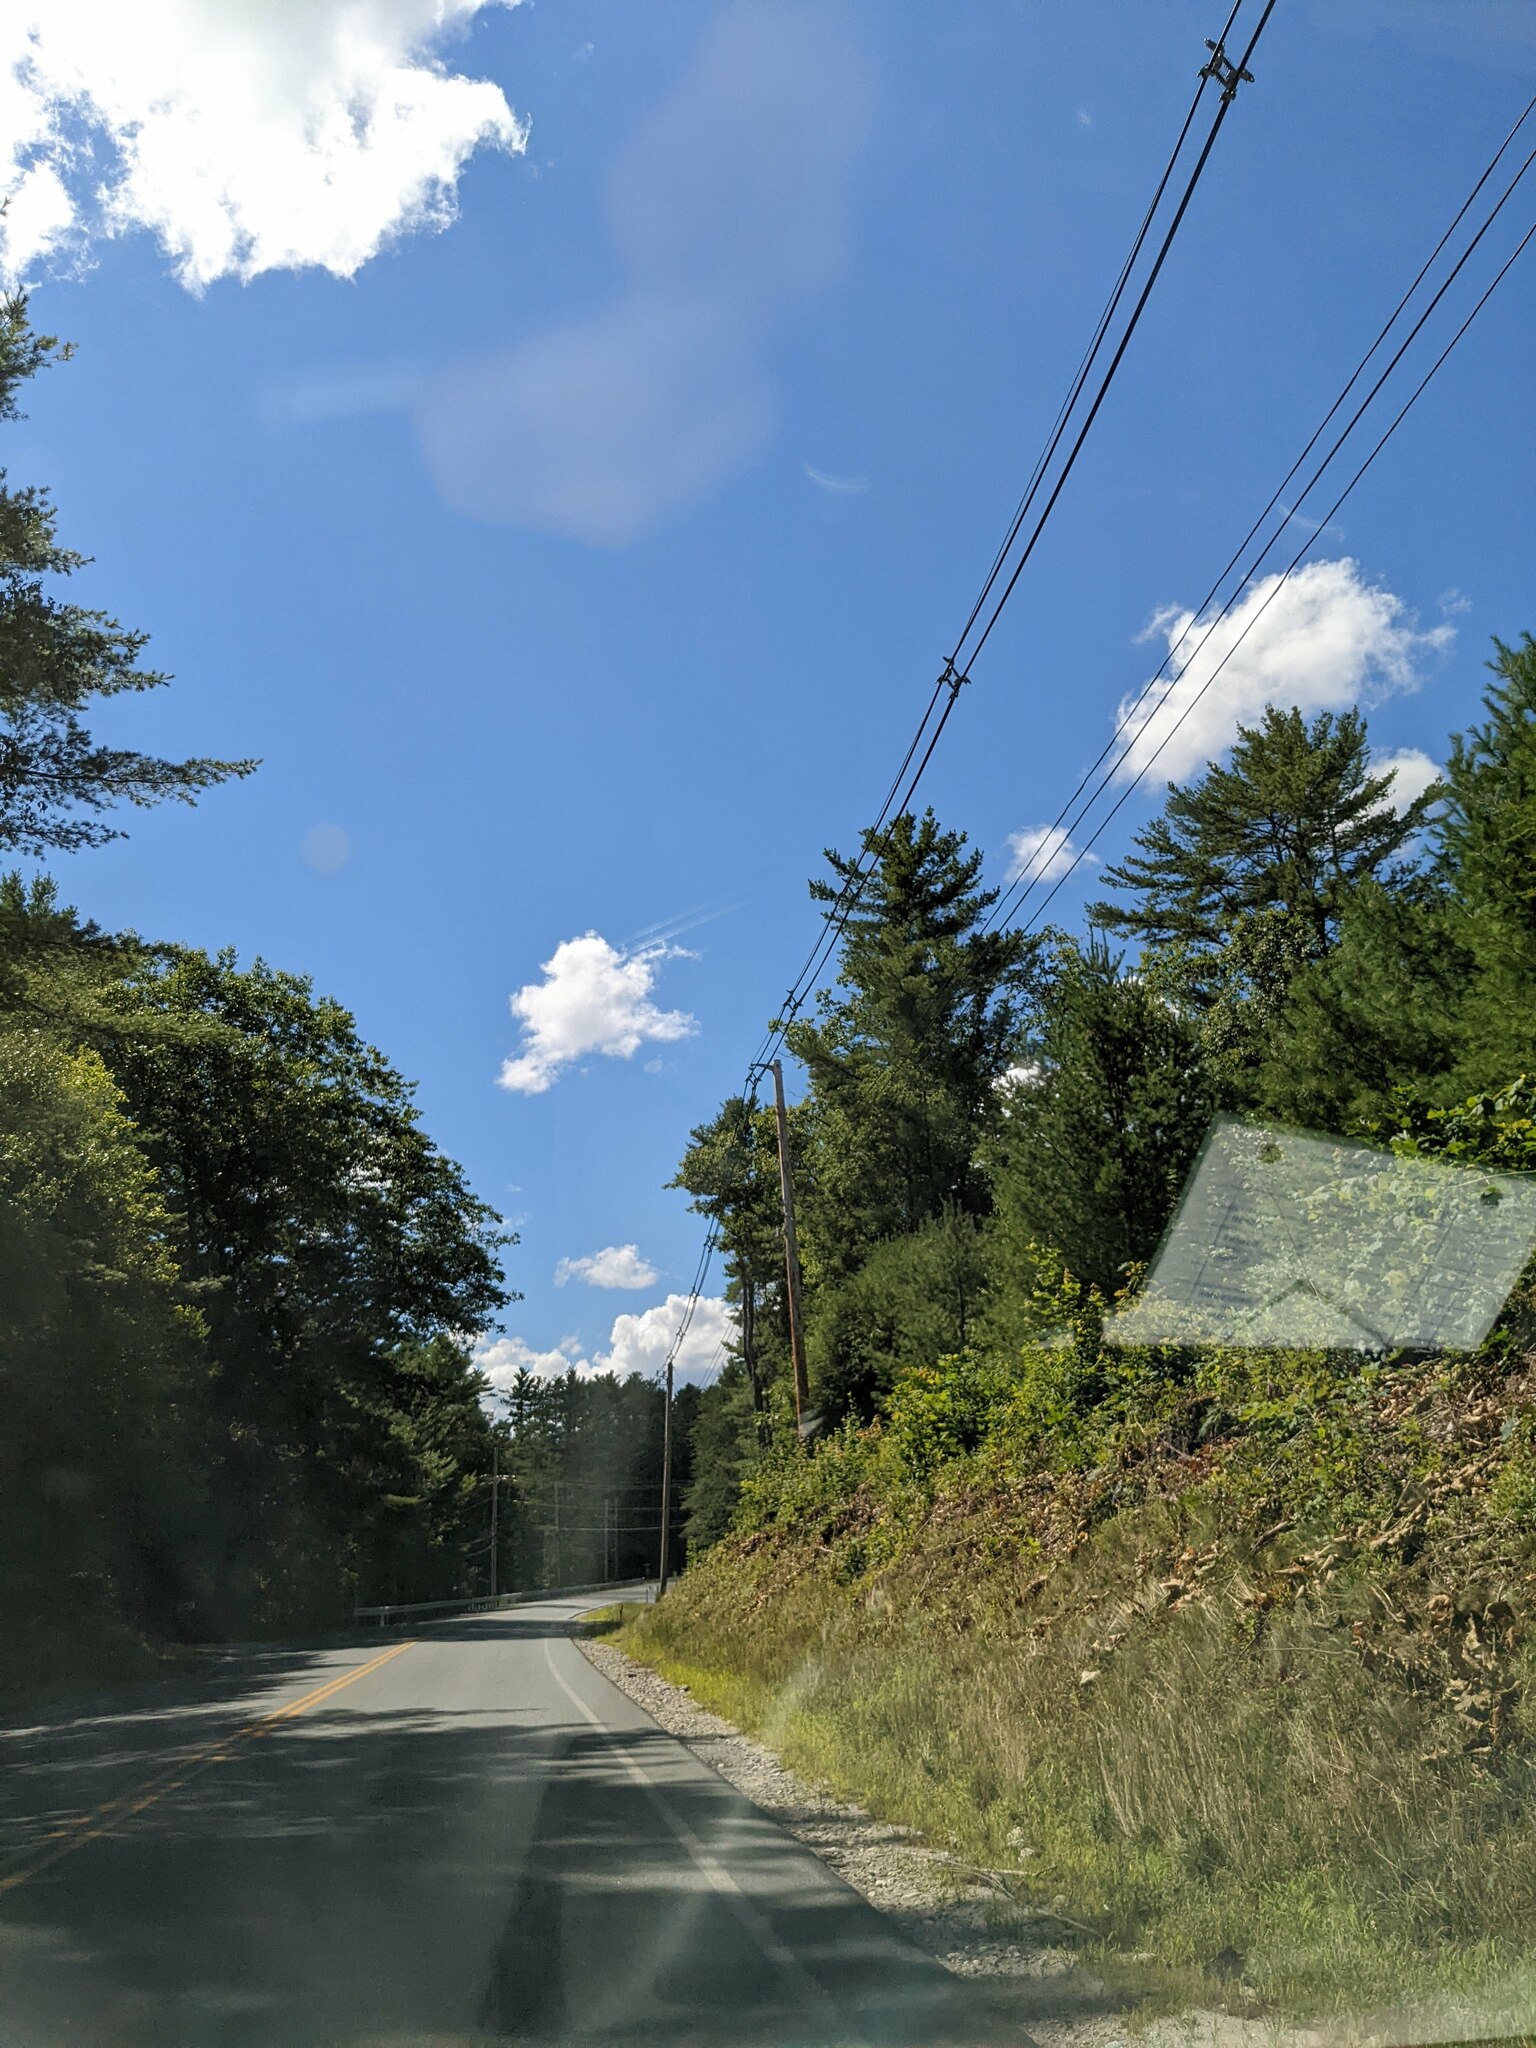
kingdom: Plantae
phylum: Tracheophyta
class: Pinopsida
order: Pinales
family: Pinaceae
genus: Pinus
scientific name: Pinus strobus
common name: Weymouth pine
